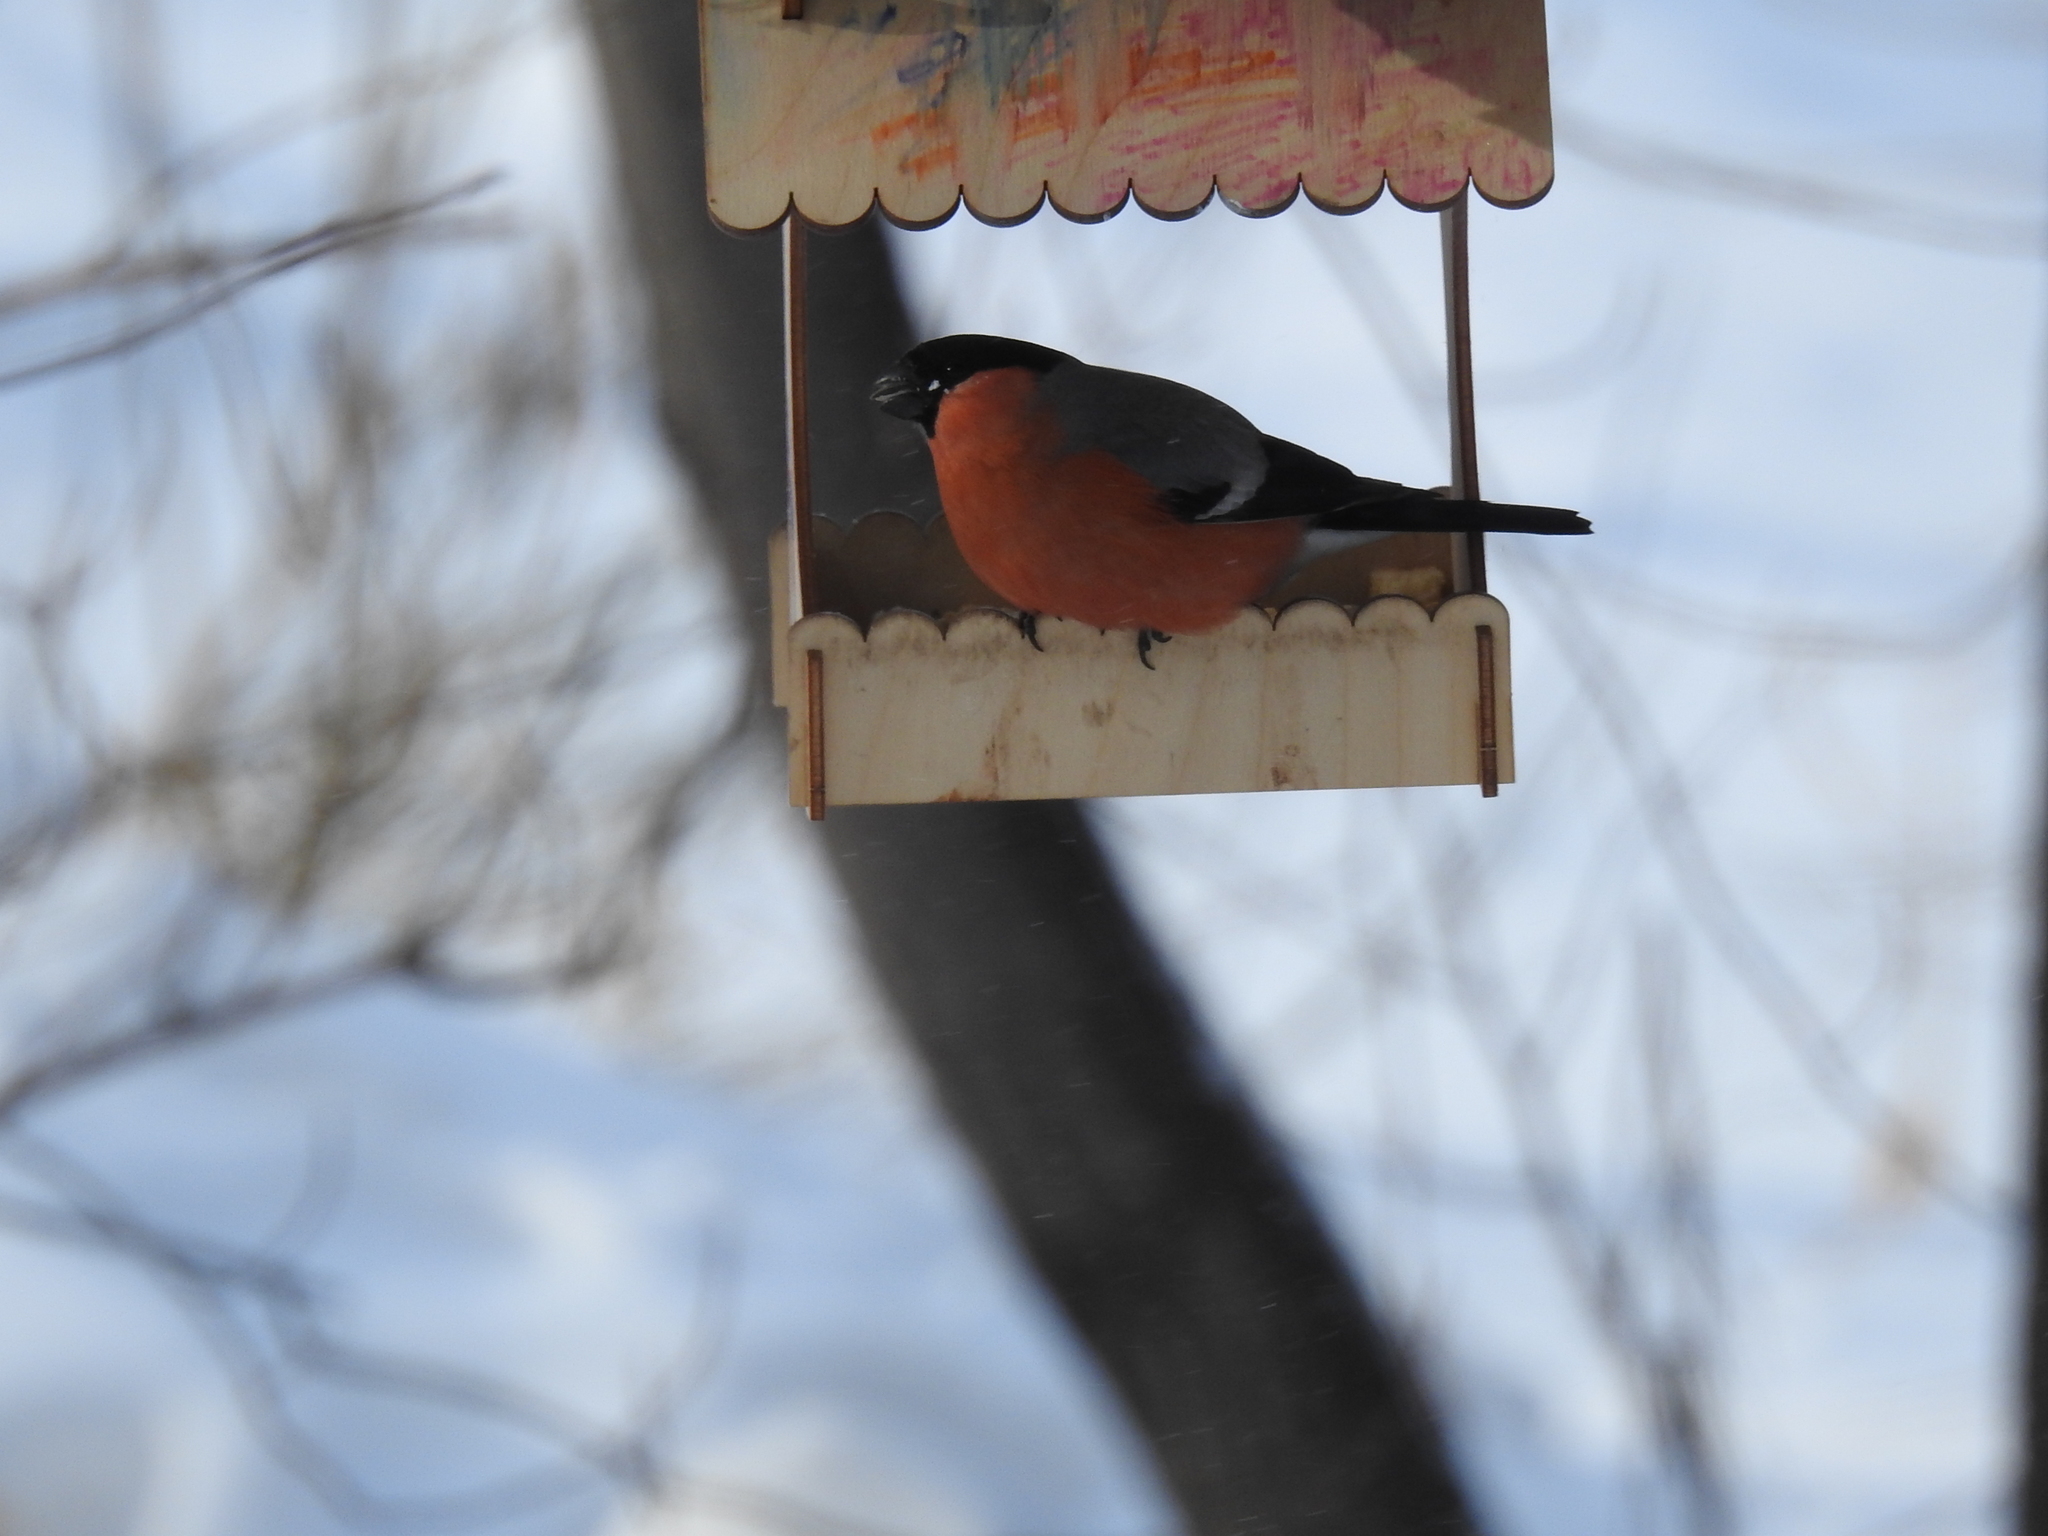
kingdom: Animalia
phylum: Chordata
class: Aves
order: Passeriformes
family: Fringillidae
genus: Pyrrhula
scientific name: Pyrrhula pyrrhula
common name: Eurasian bullfinch
